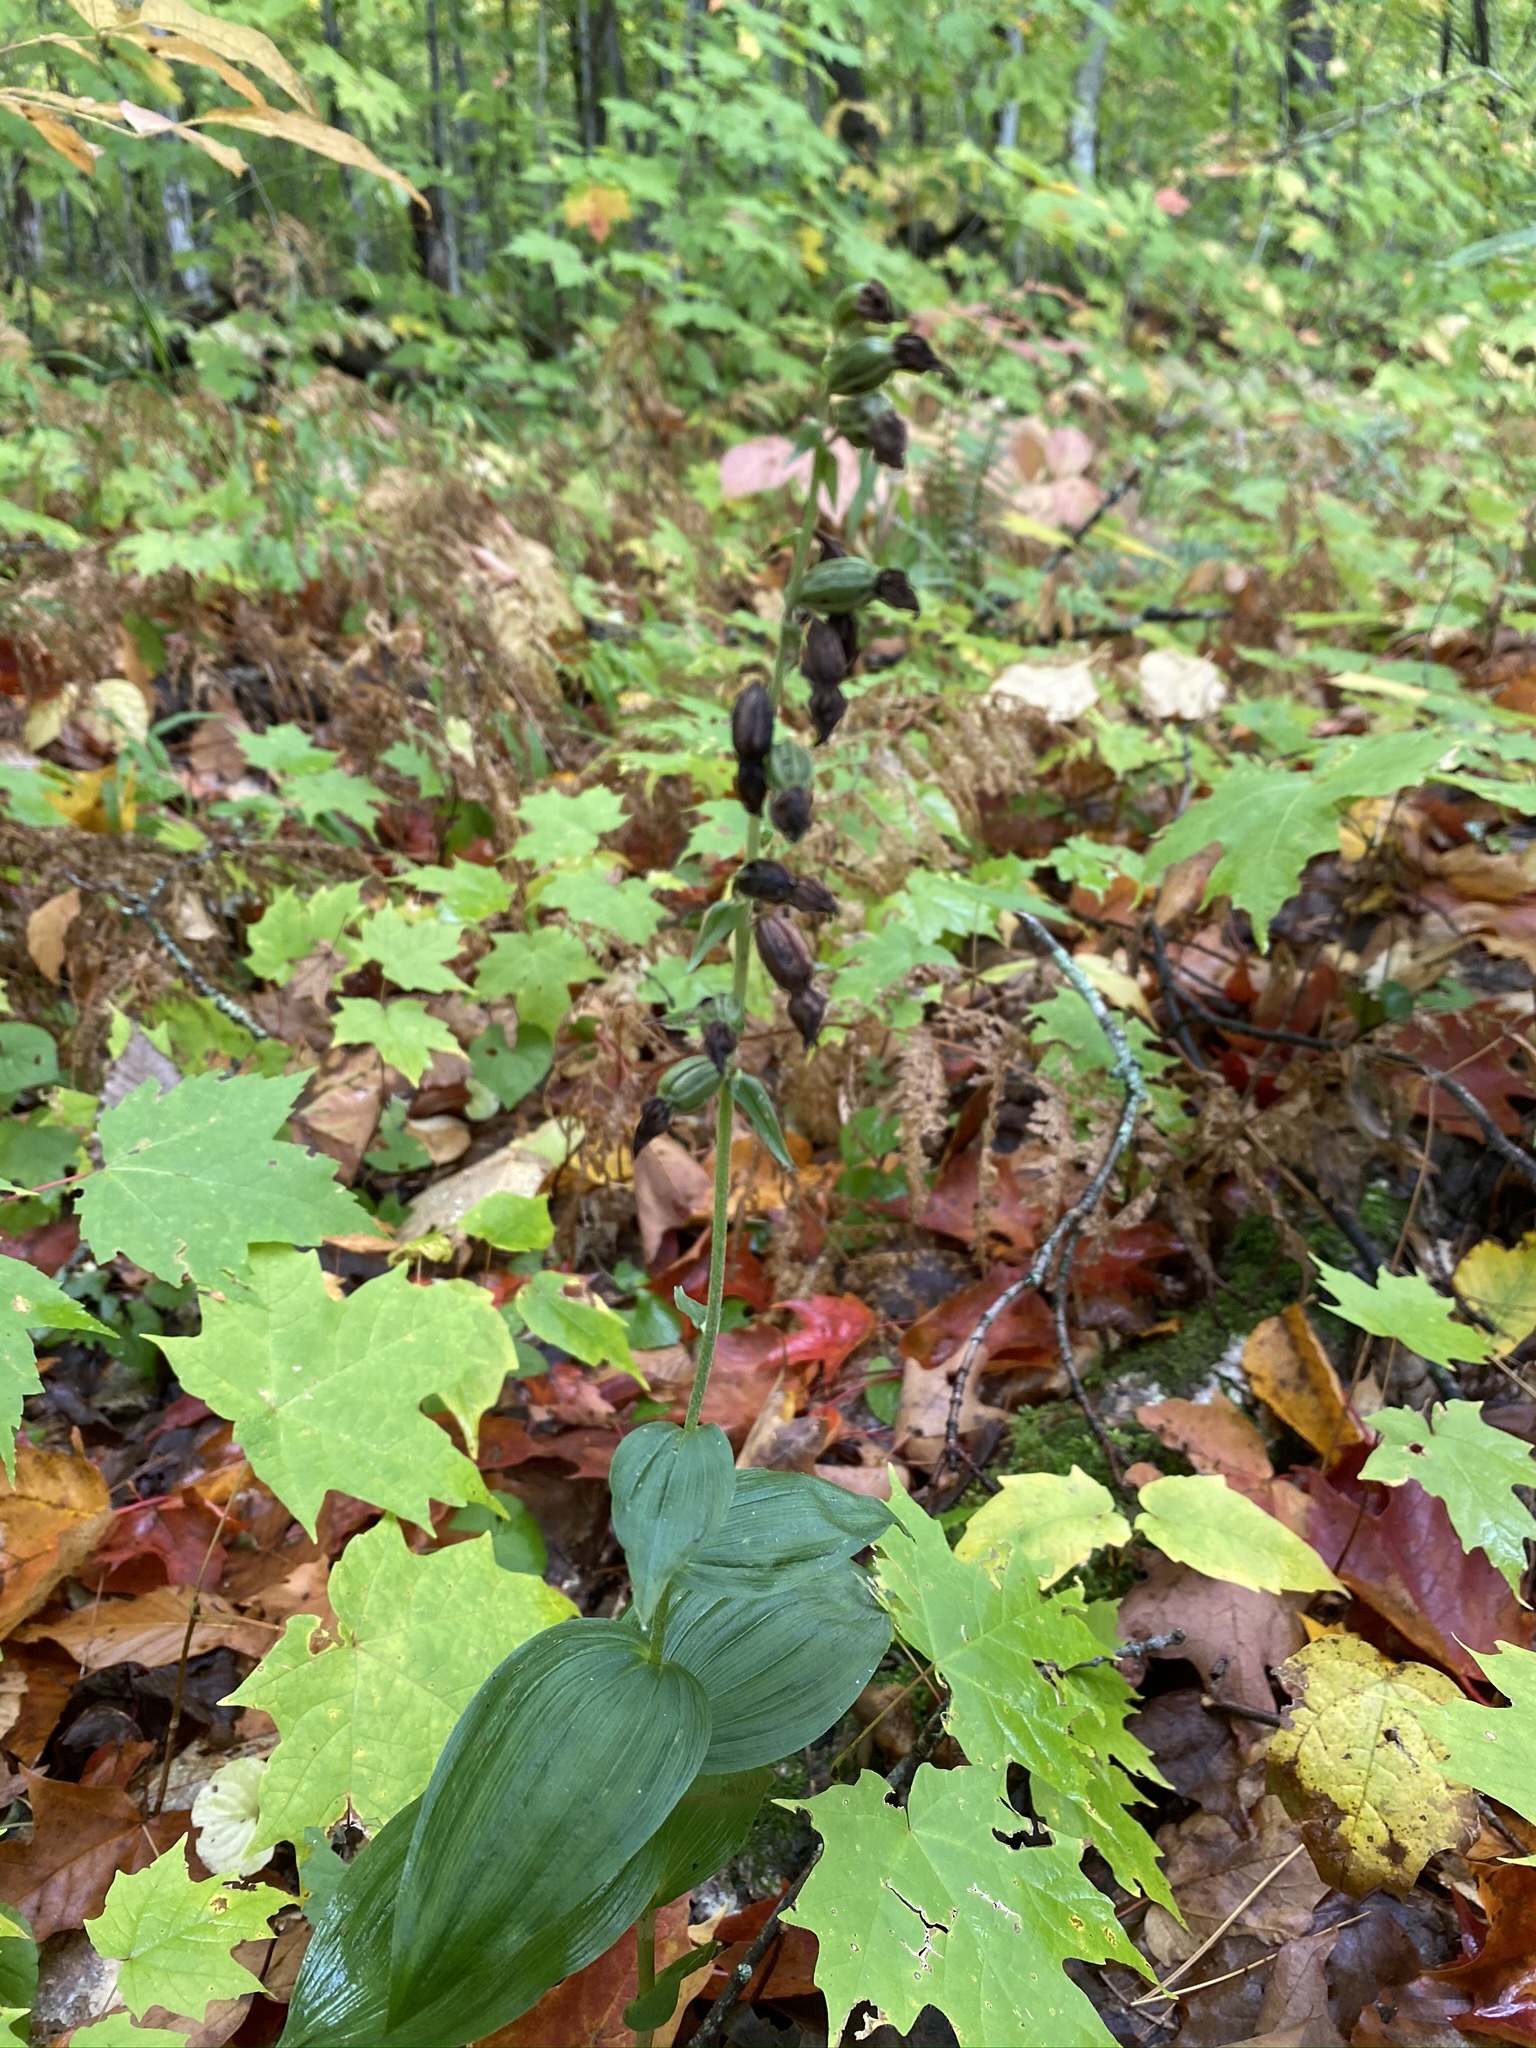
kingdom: Plantae
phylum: Tracheophyta
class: Liliopsida
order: Asparagales
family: Orchidaceae
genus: Epipactis
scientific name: Epipactis helleborine
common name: Broad-leaved helleborine
